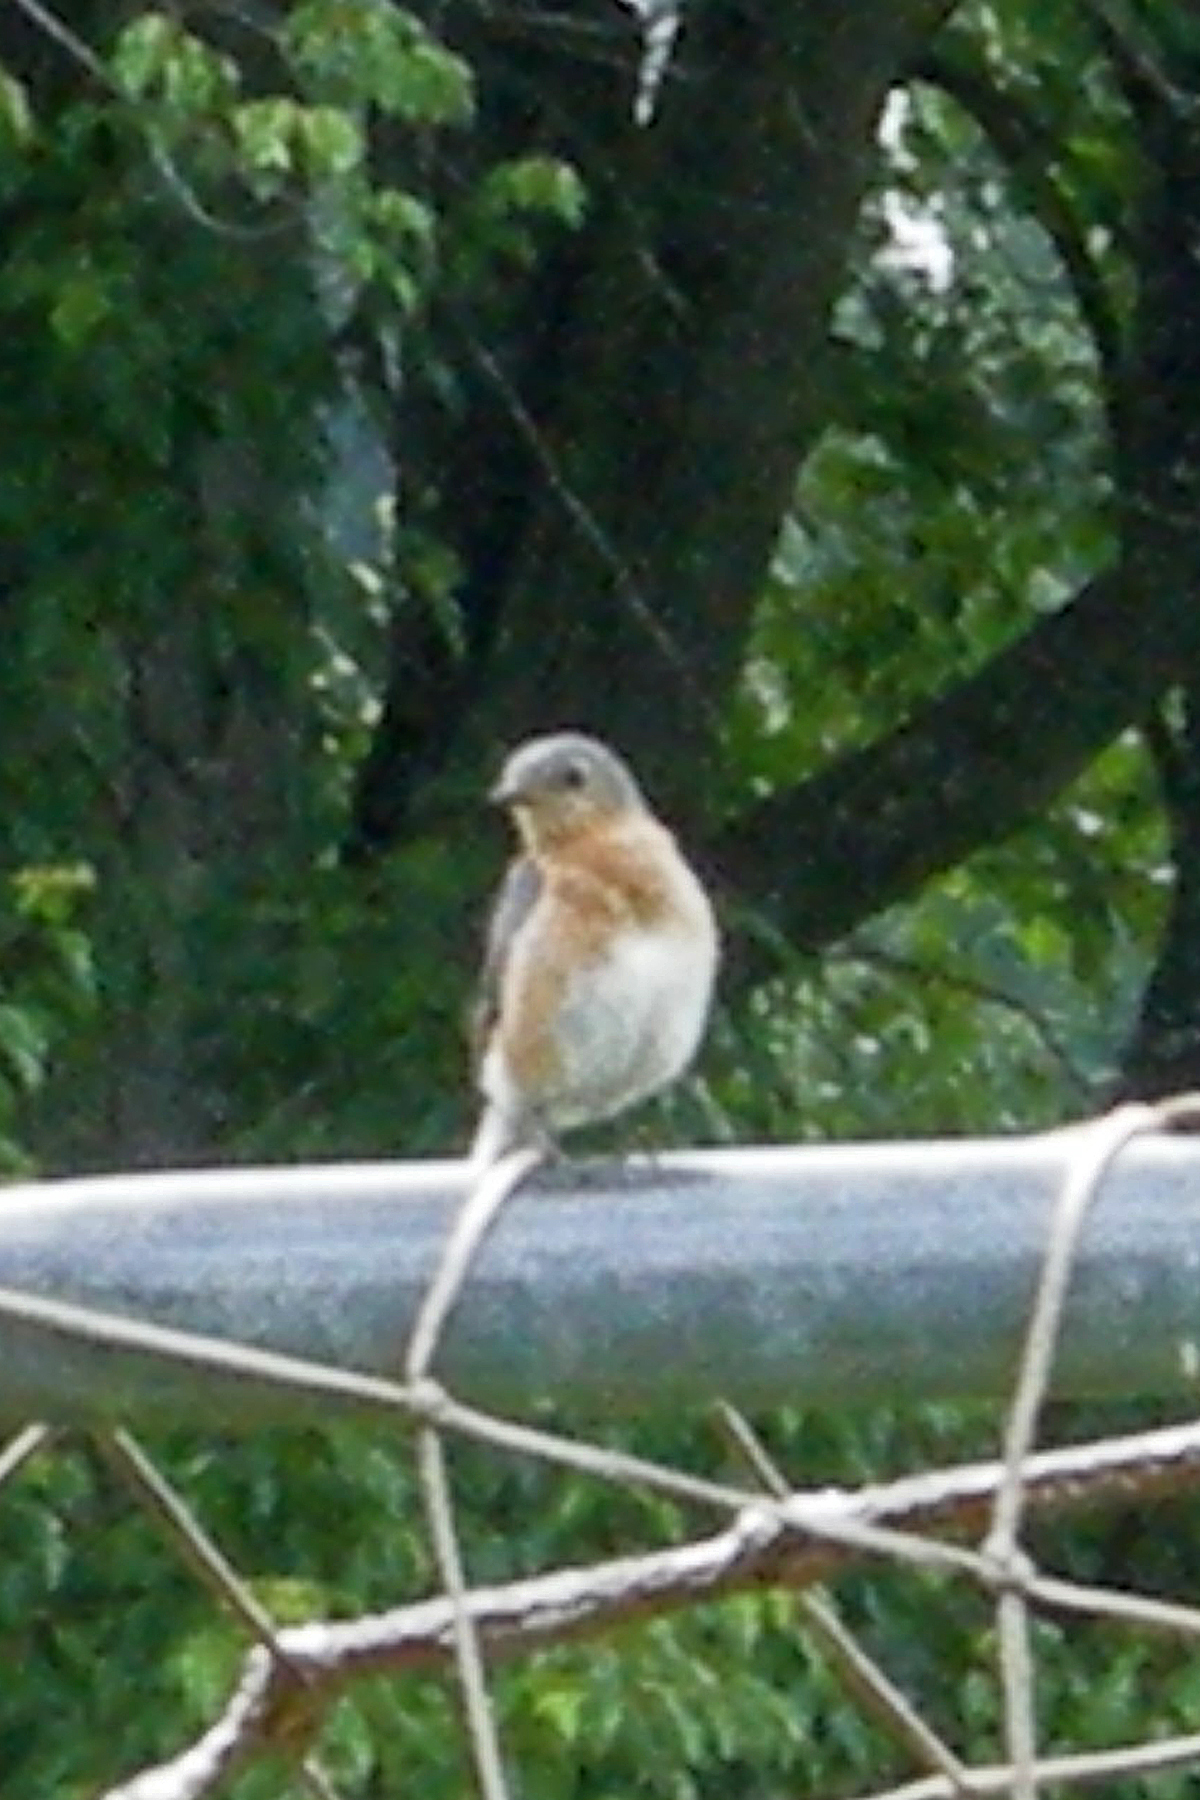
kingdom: Animalia
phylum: Chordata
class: Aves
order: Passeriformes
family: Turdidae
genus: Sialia
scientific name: Sialia sialis
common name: Eastern bluebird
